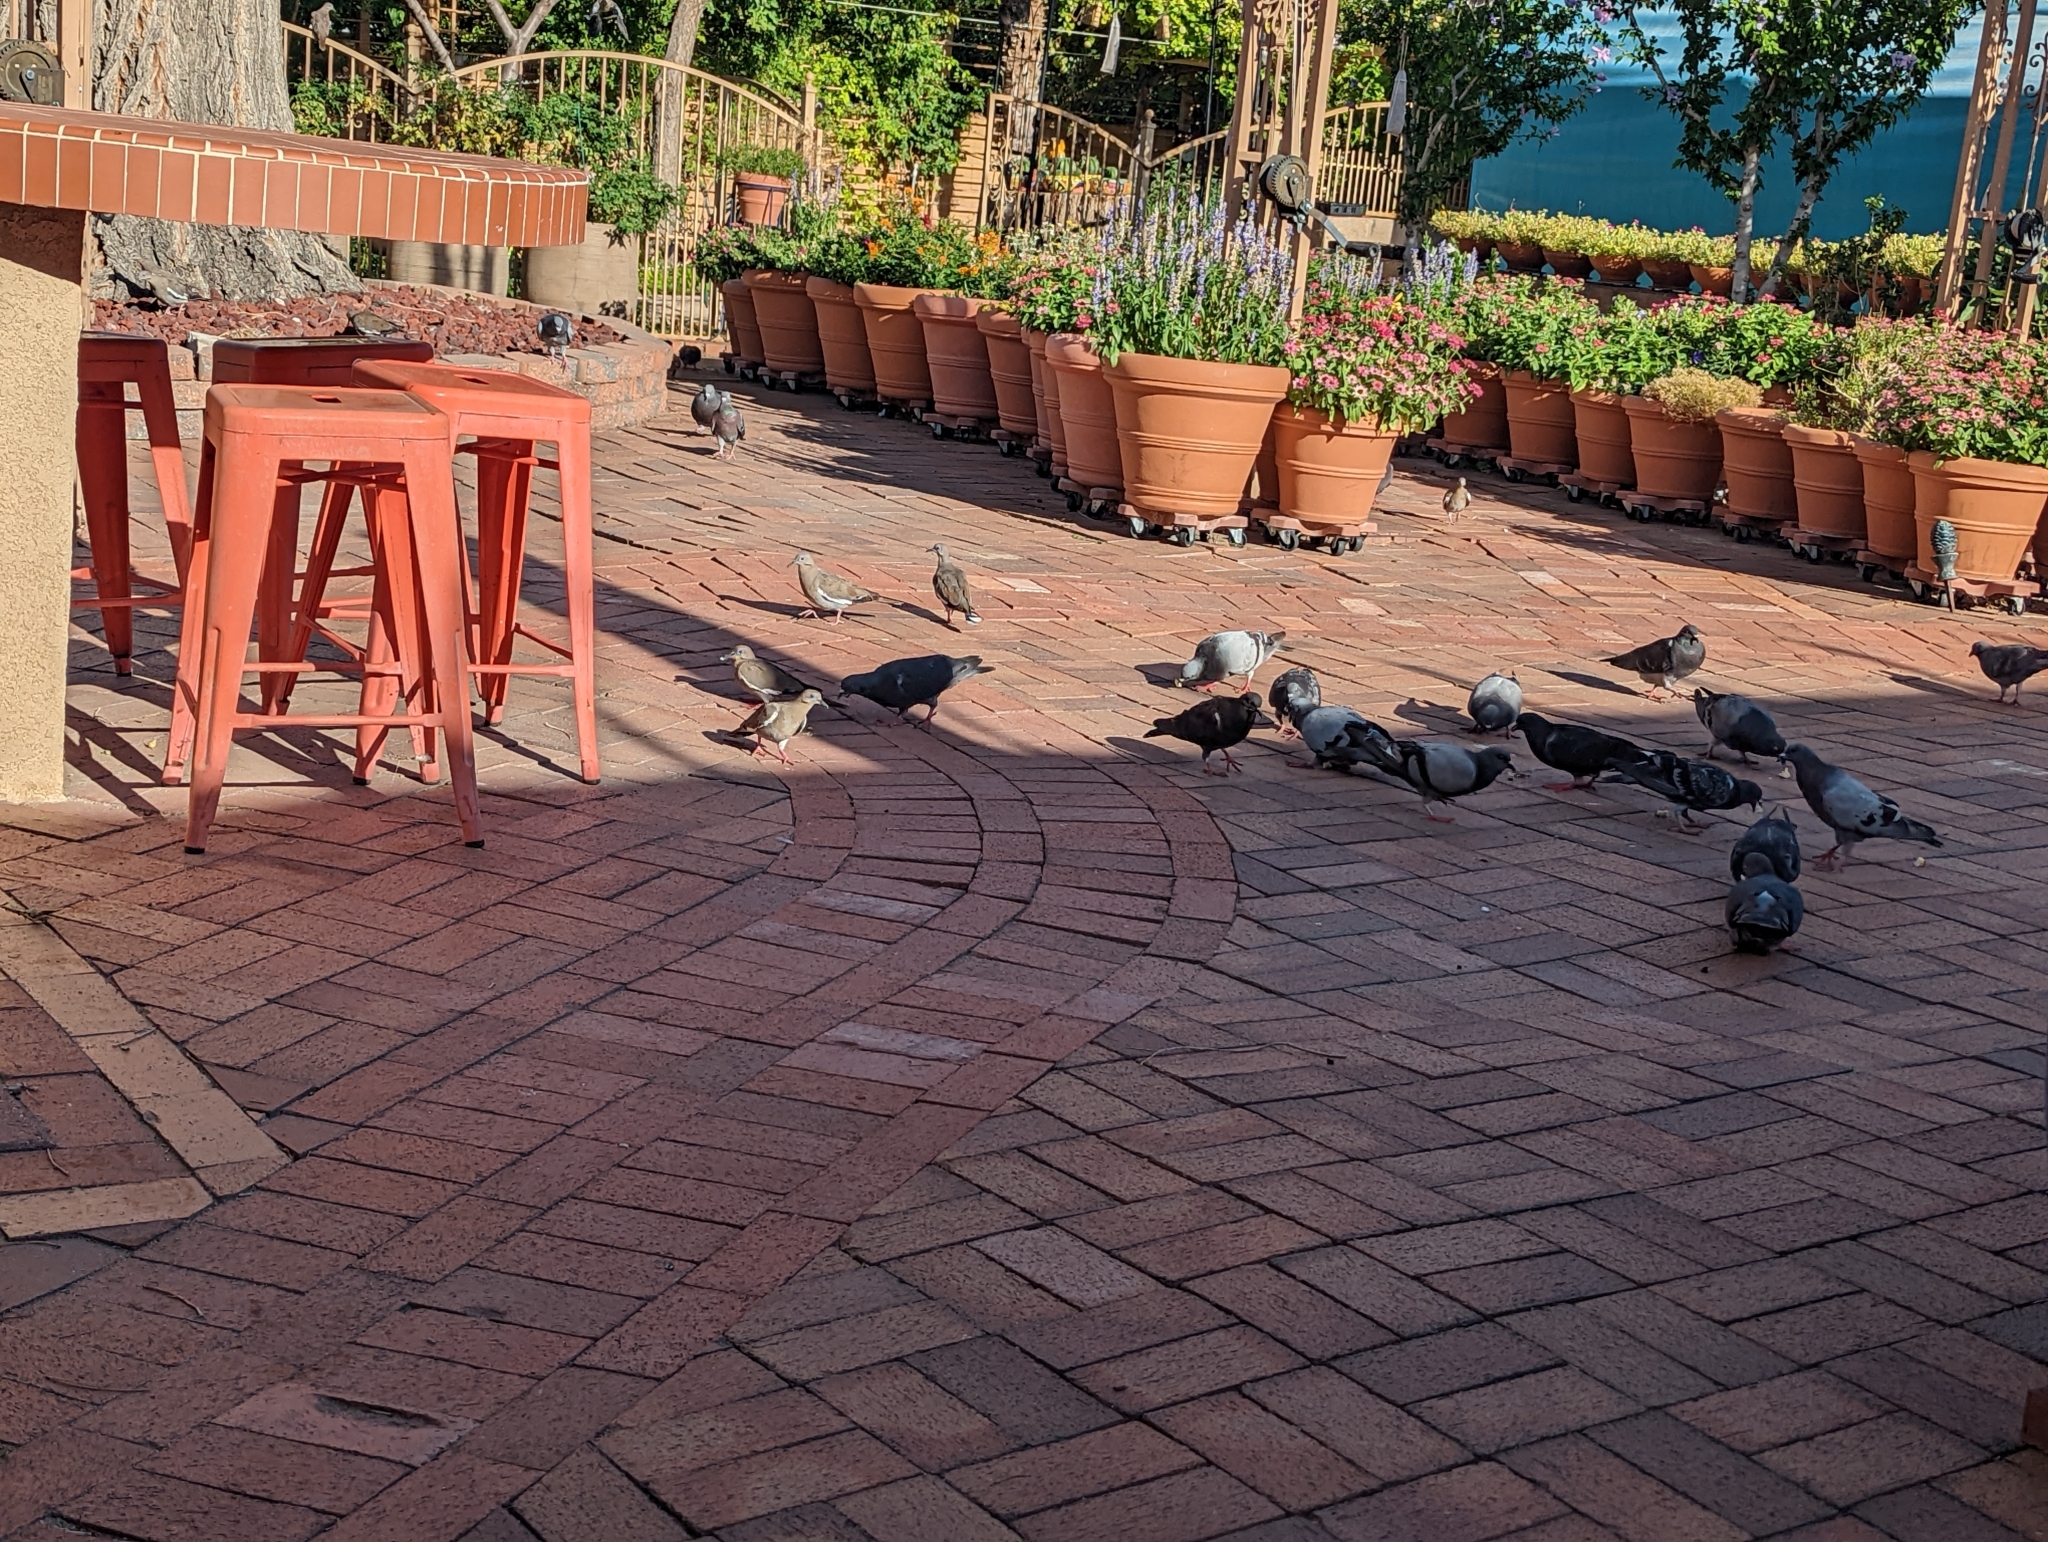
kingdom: Animalia
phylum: Chordata
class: Aves
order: Columbiformes
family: Columbidae
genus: Columba
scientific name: Columba livia
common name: Rock pigeon
